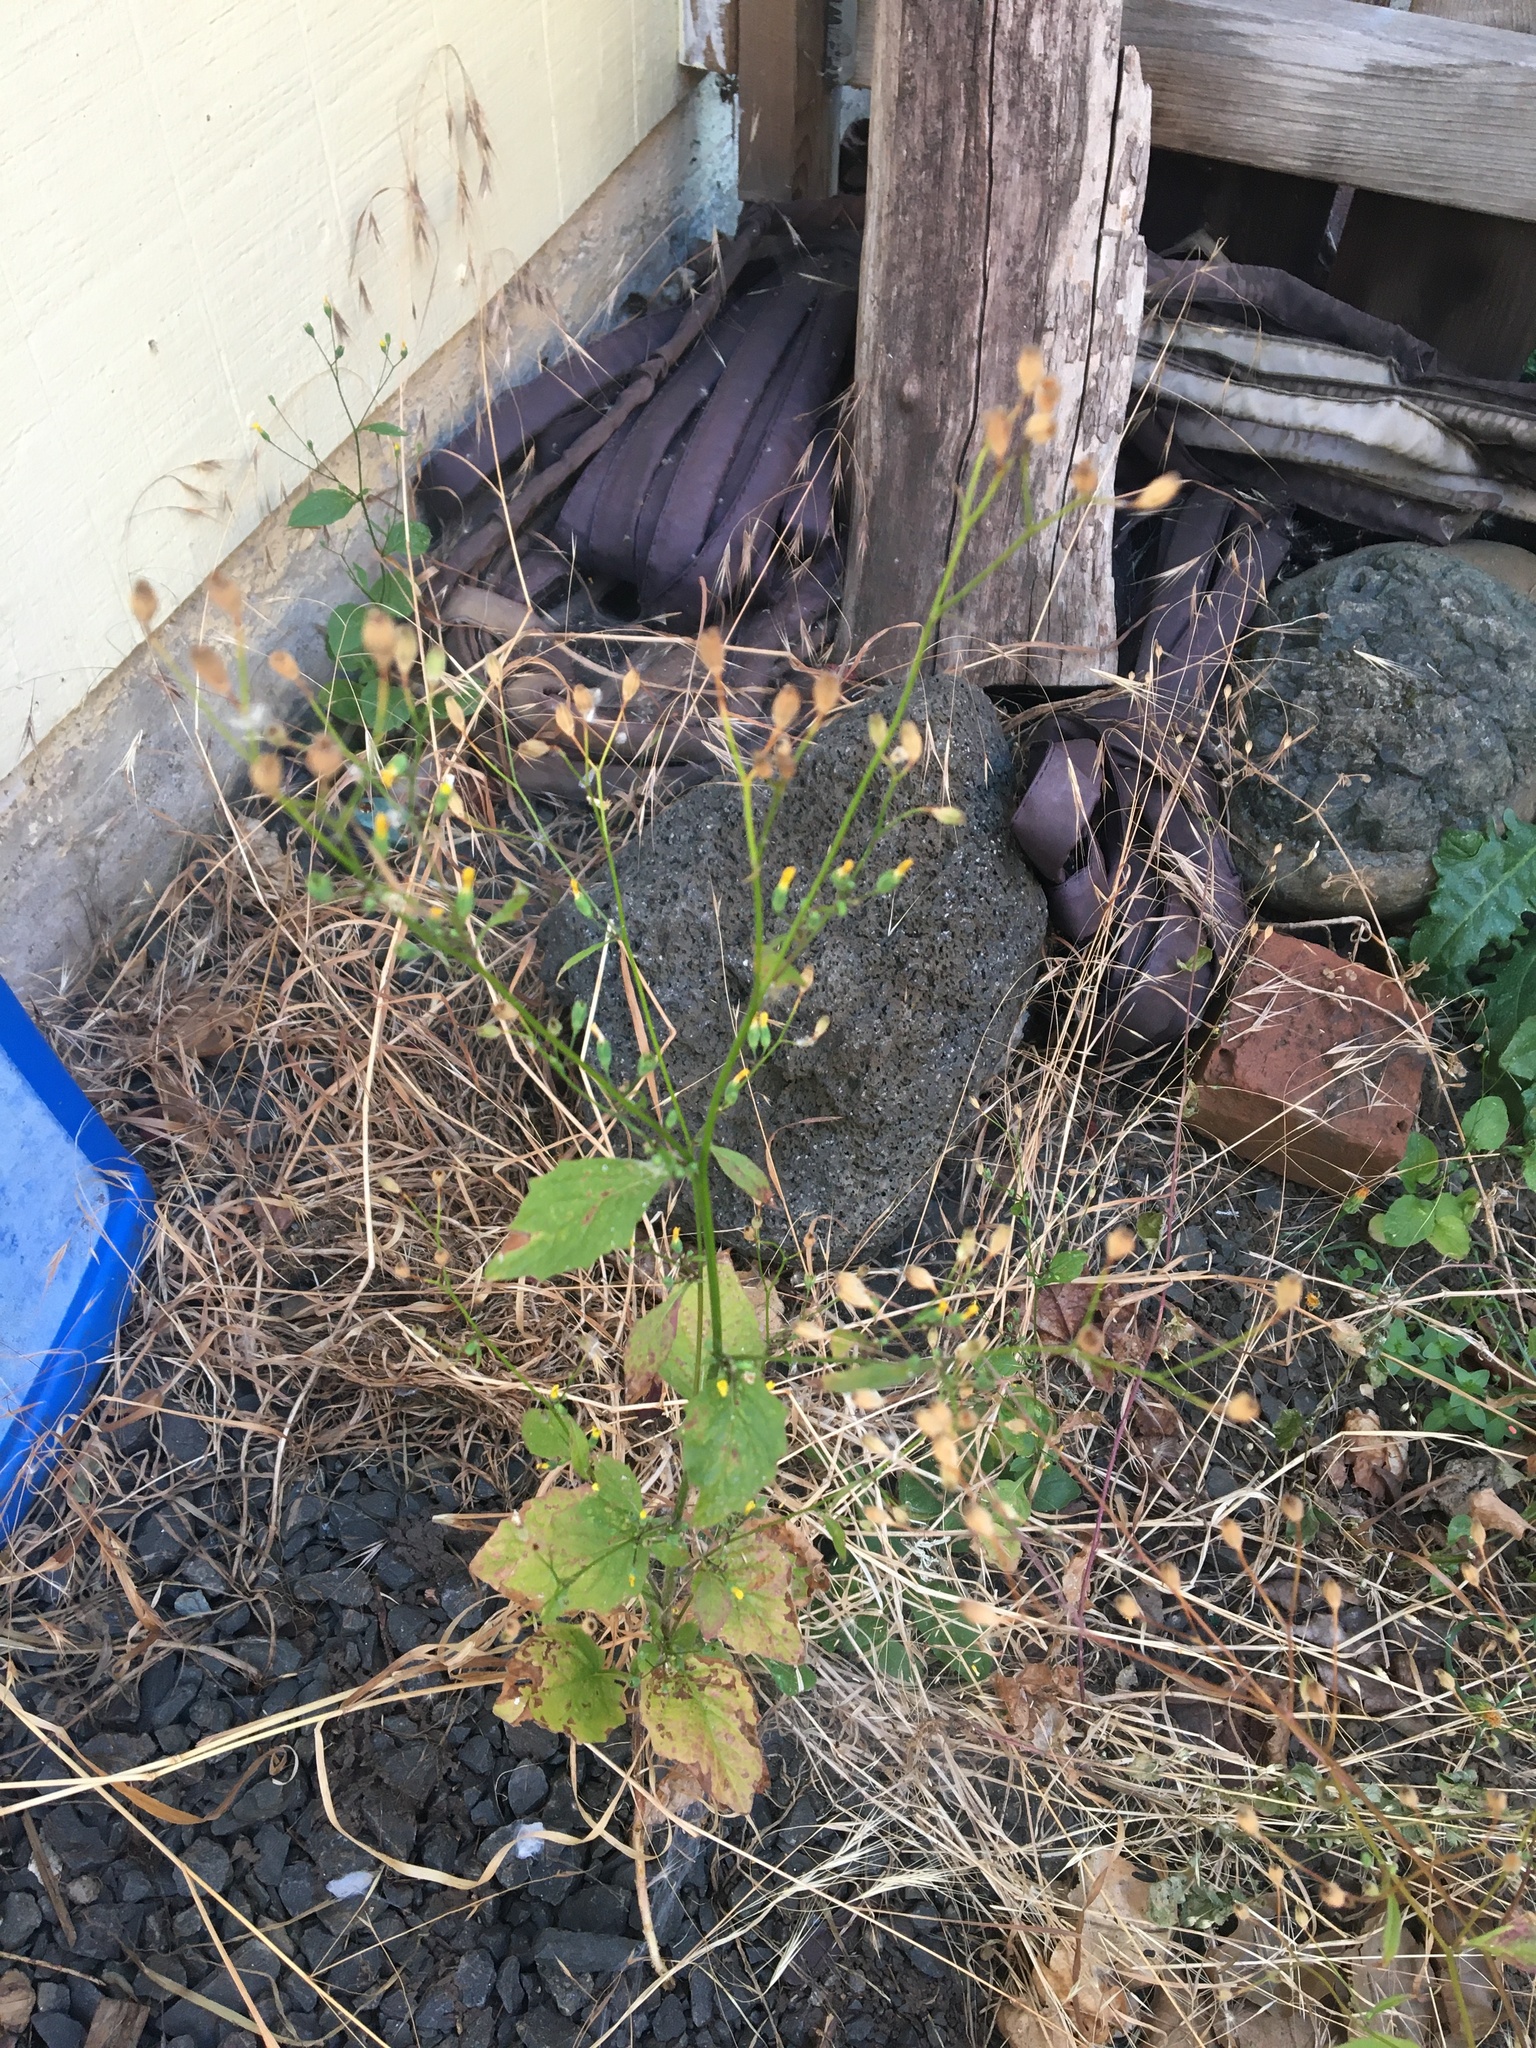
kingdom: Plantae
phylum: Tracheophyta
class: Magnoliopsida
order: Asterales
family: Asteraceae
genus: Lapsana
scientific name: Lapsana communis
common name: Nipplewort
